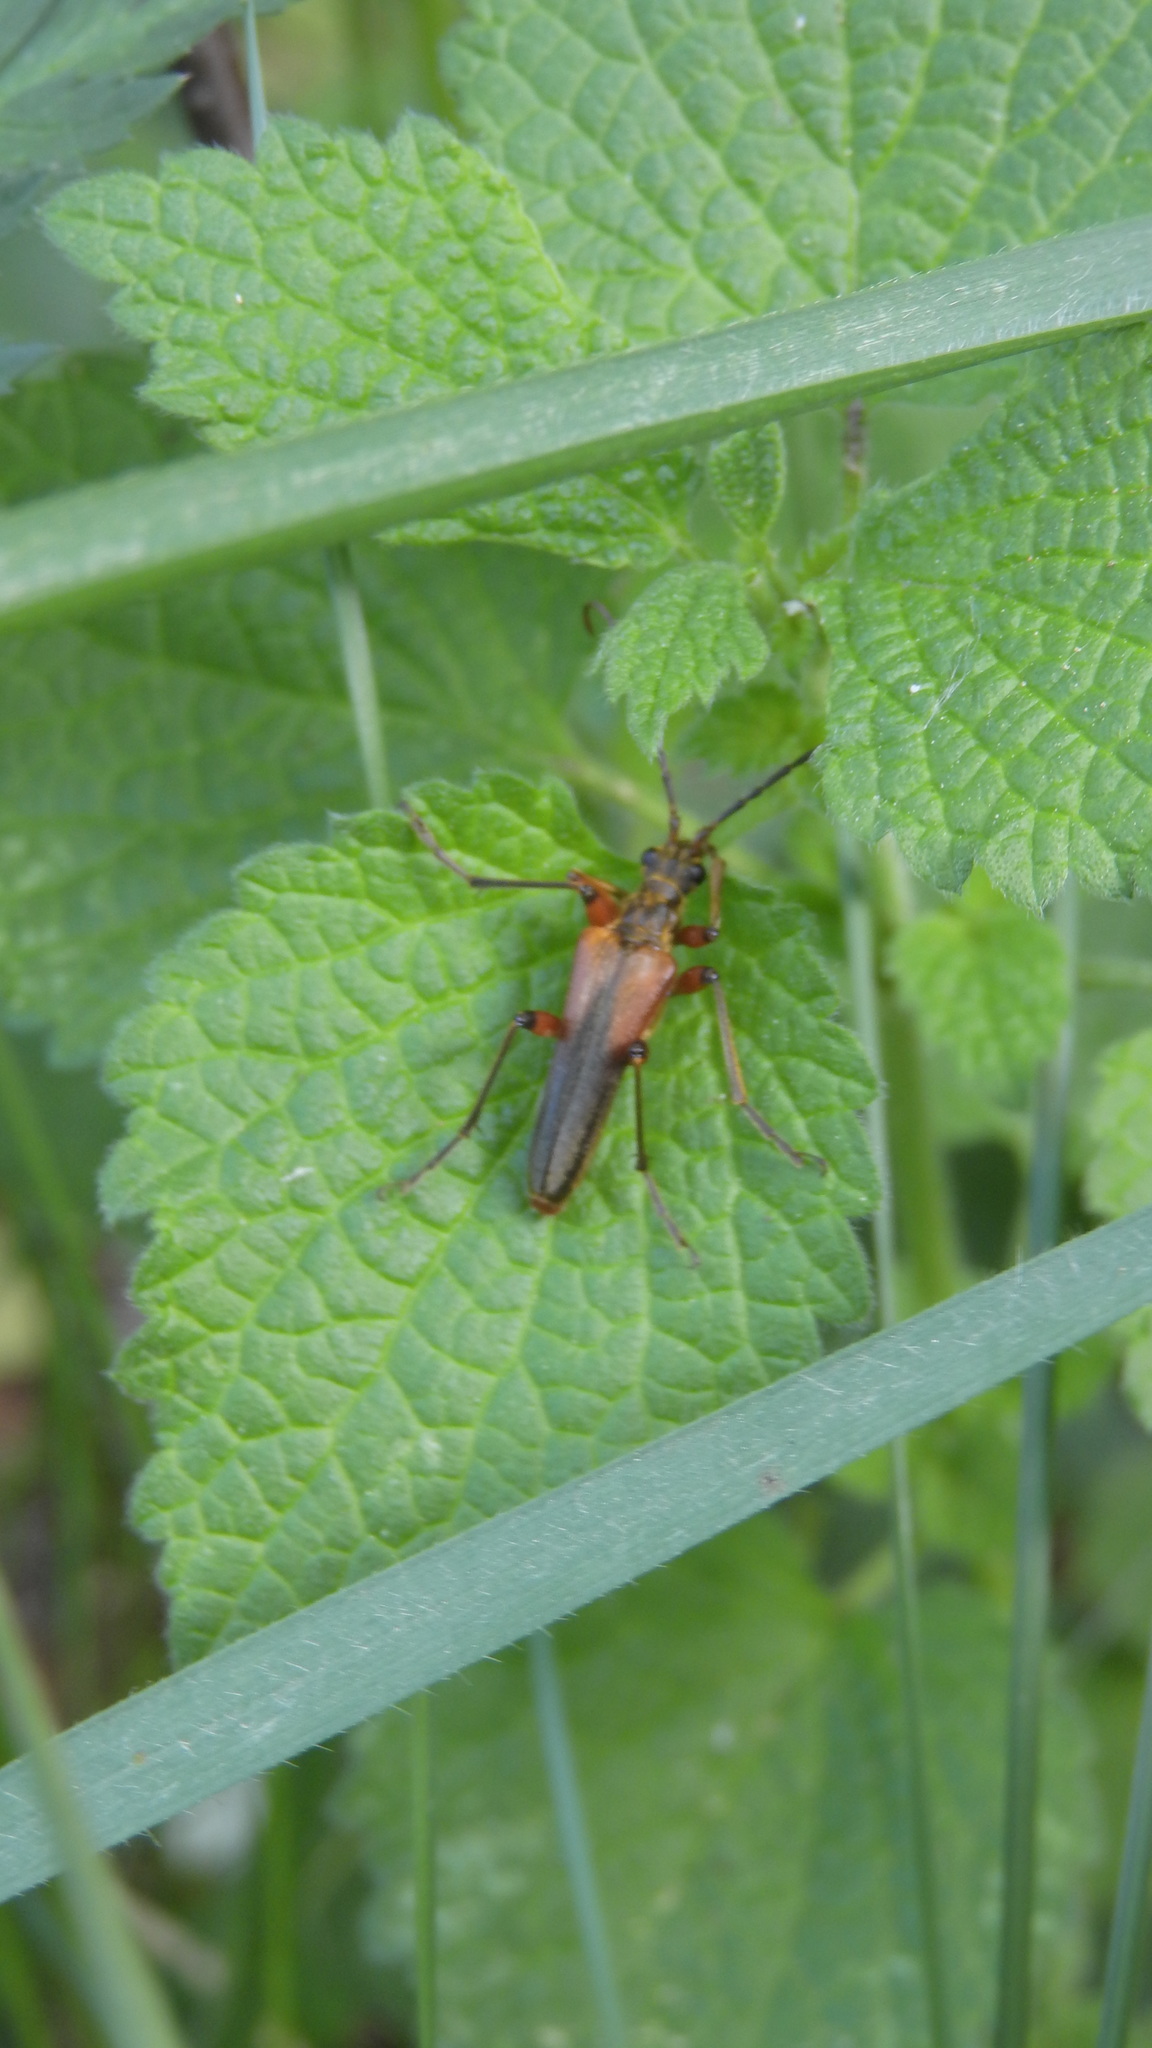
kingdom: Animalia
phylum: Arthropoda
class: Insecta
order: Coleoptera
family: Cerambycidae
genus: Stenocorus
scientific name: Stenocorus meridianus
